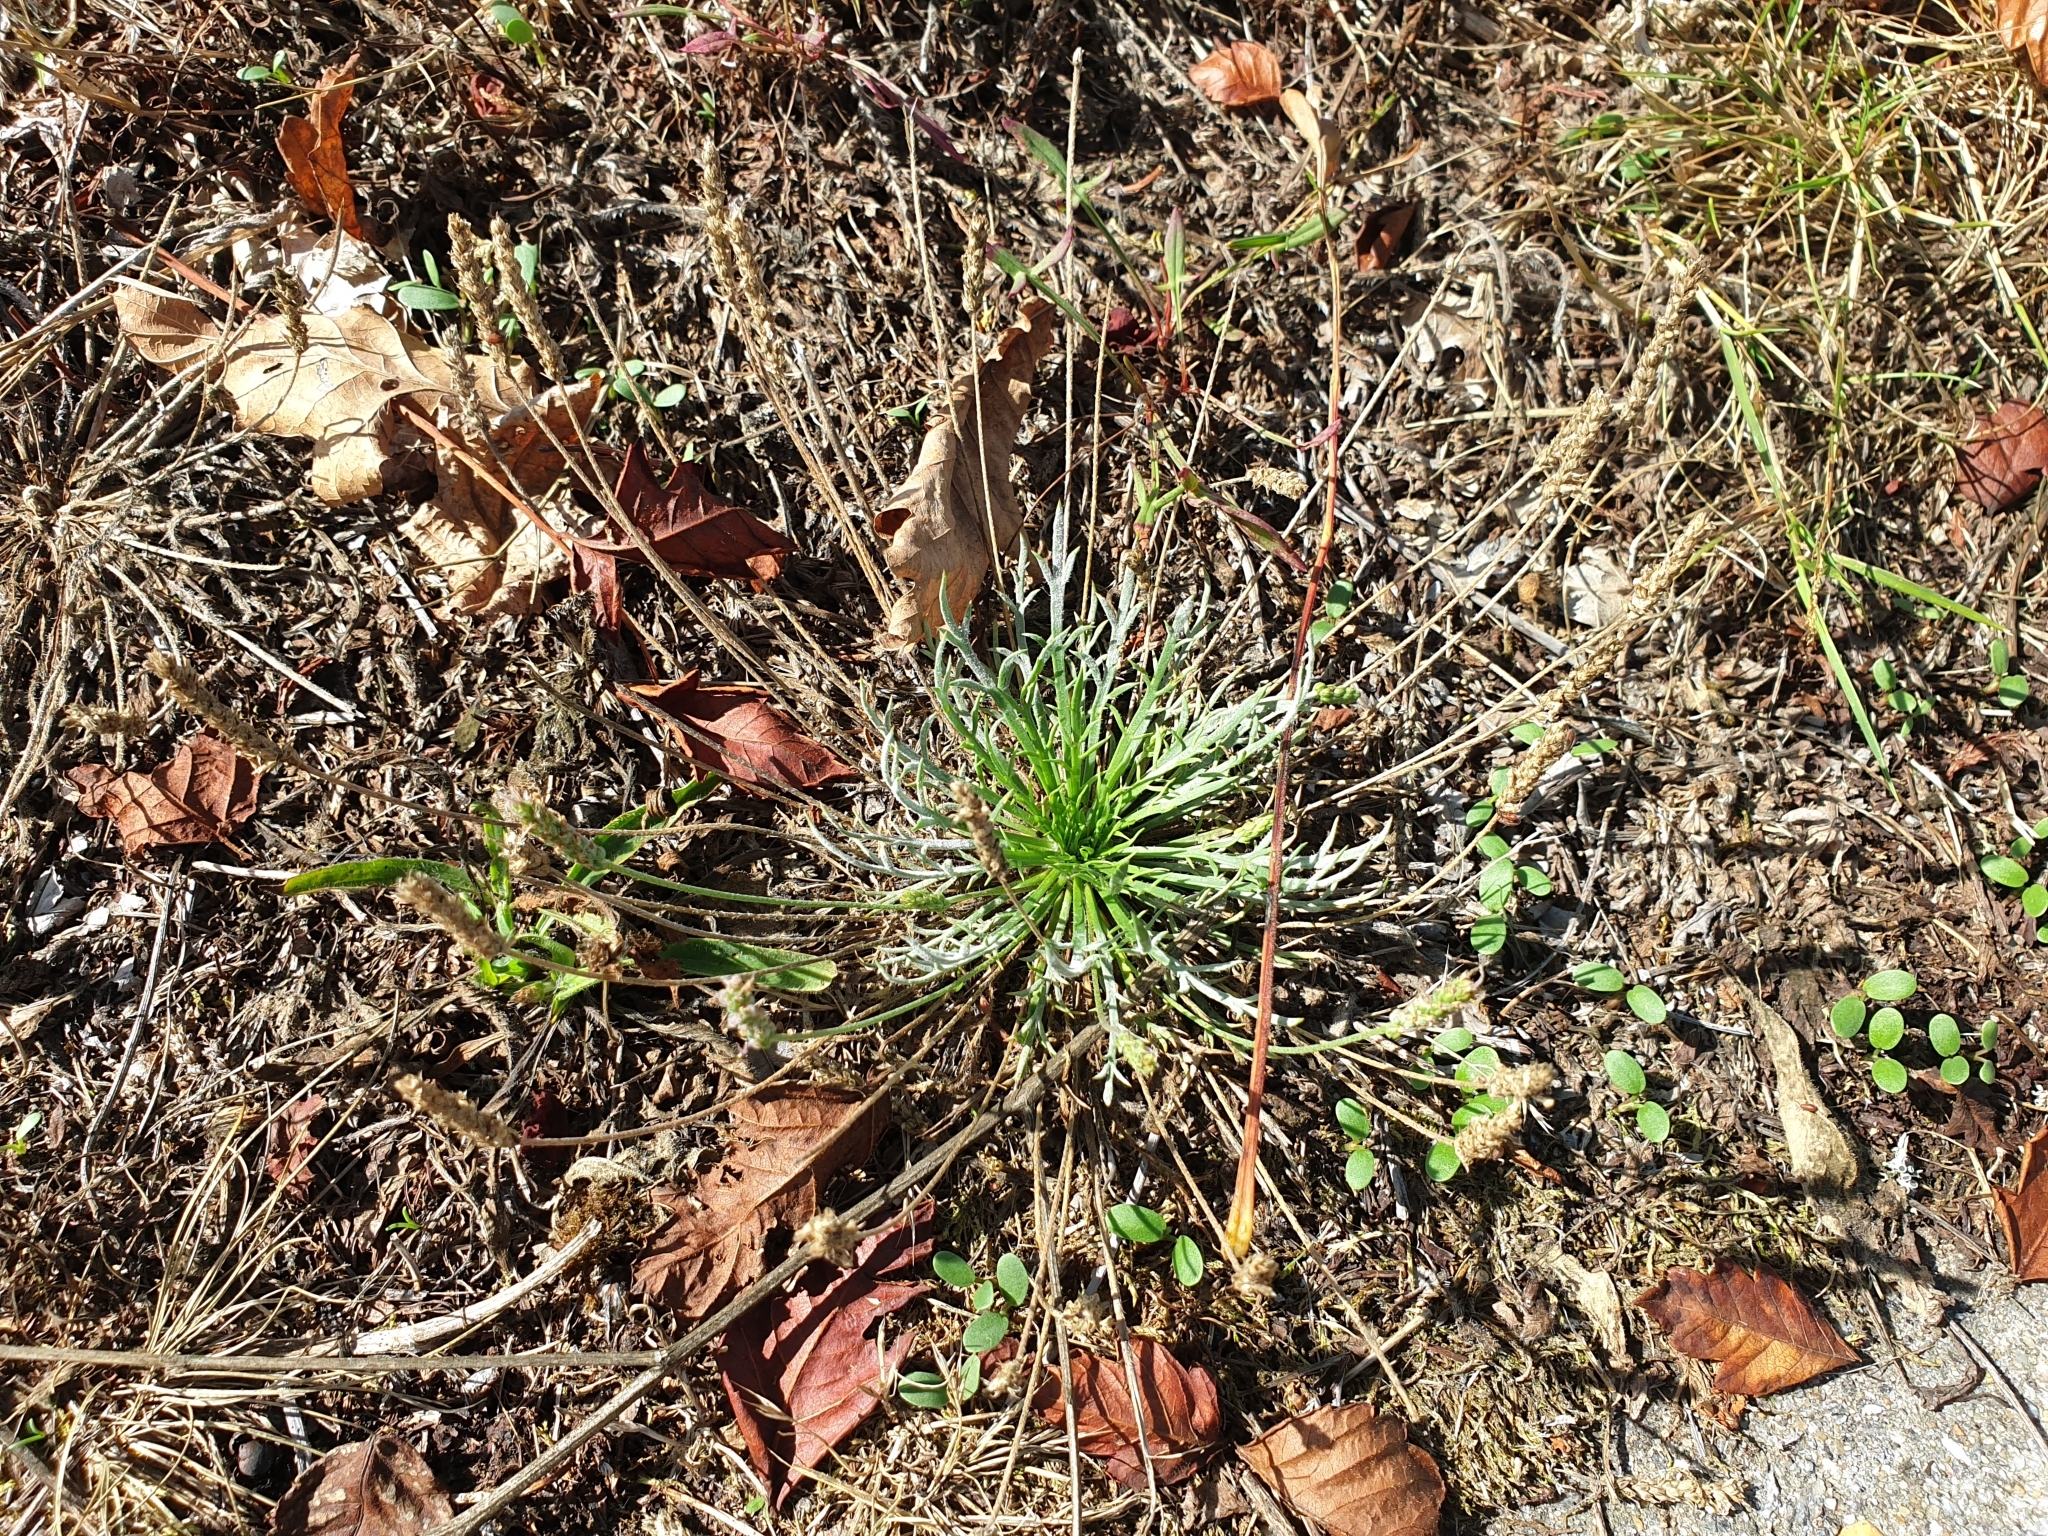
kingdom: Plantae
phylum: Tracheophyta
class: Magnoliopsida
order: Lamiales
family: Plantaginaceae
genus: Plantago
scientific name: Plantago coronopus
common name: Buck's-horn plantain
